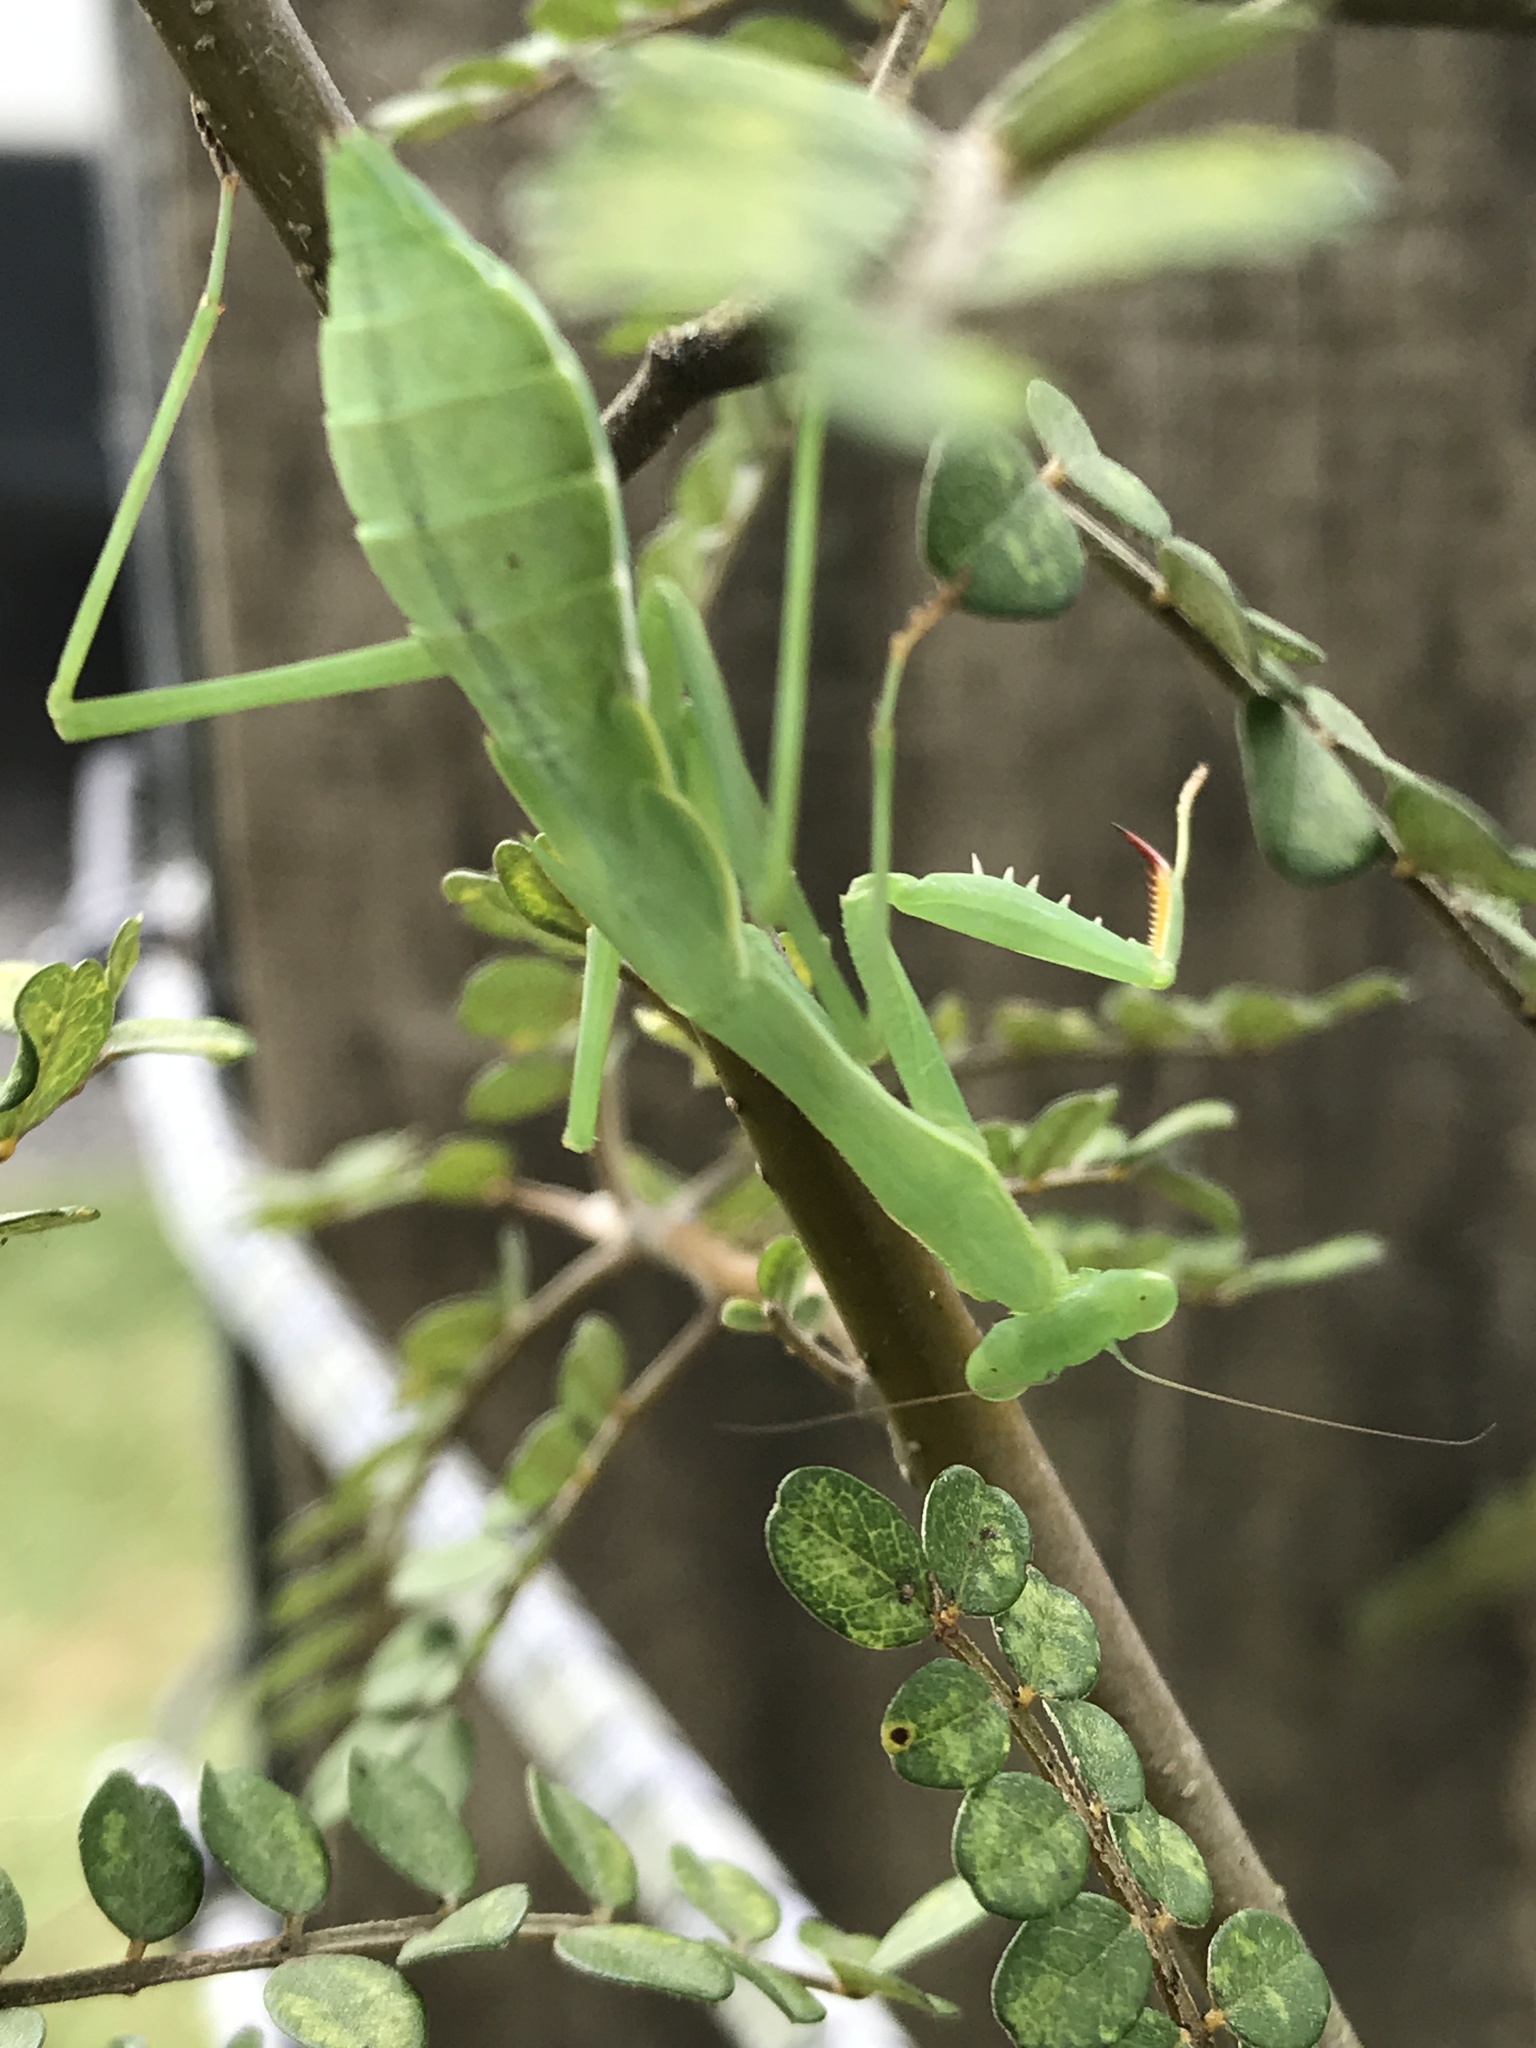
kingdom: Animalia
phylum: Arthropoda
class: Insecta
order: Mantodea
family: Miomantidae
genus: Miomantis
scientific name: Miomantis caffra
